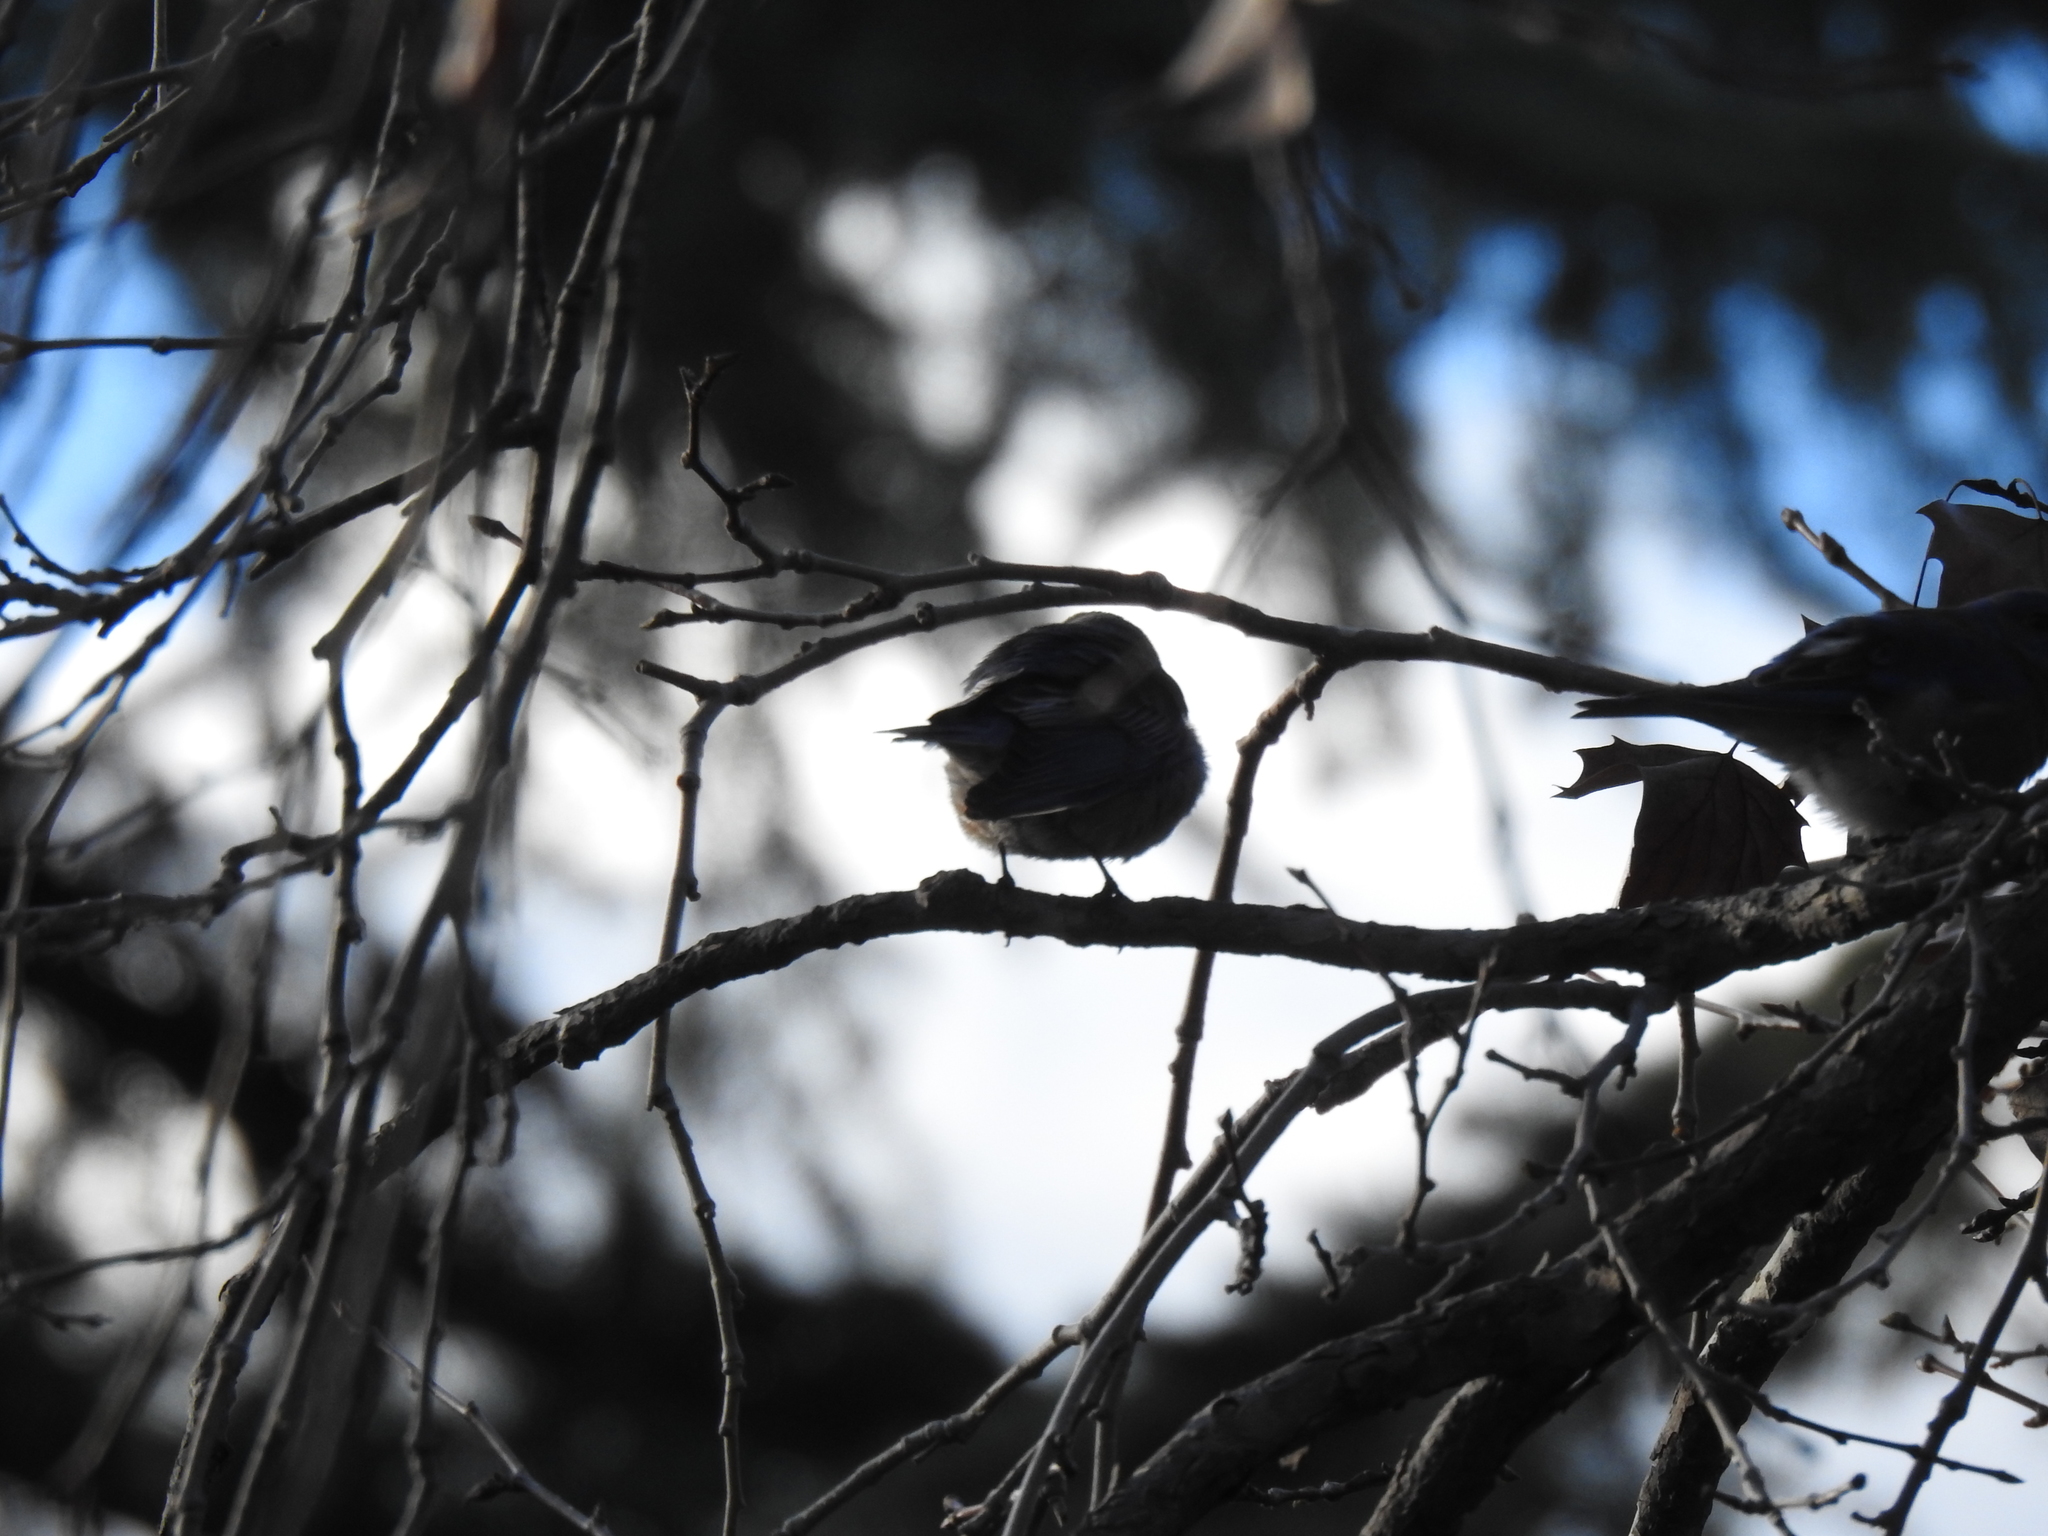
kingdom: Animalia
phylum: Chordata
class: Aves
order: Passeriformes
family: Turdidae
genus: Sialia
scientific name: Sialia mexicana
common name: Western bluebird
